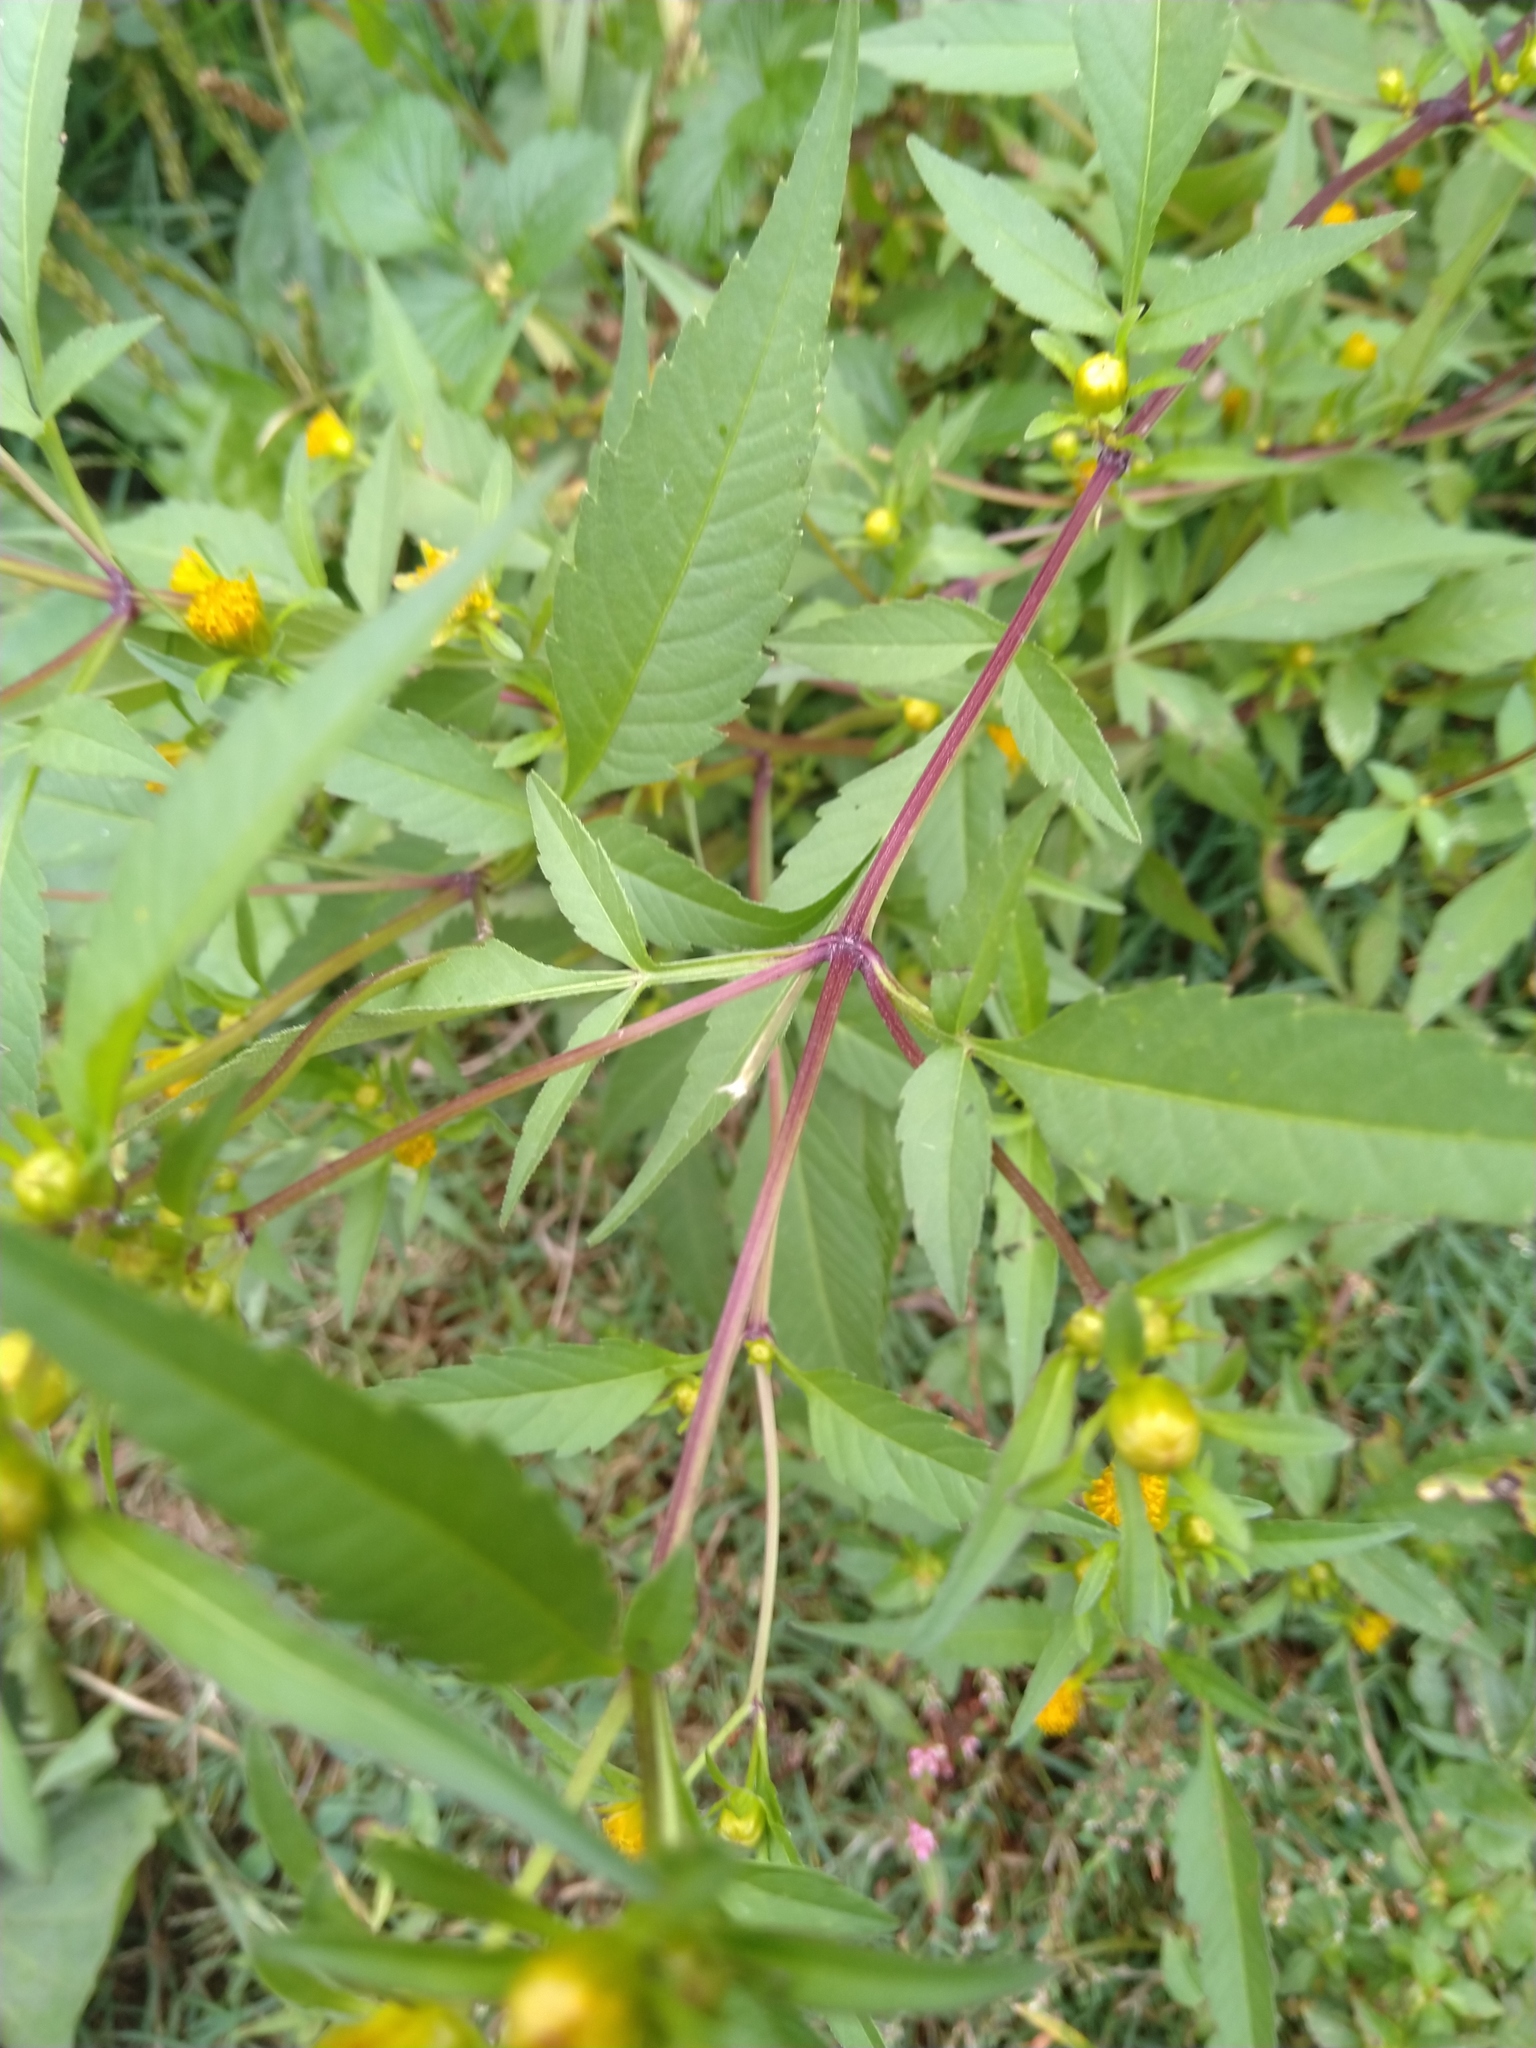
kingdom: Plantae
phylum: Tracheophyta
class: Magnoliopsida
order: Asterales
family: Asteraceae
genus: Bidens
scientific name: Bidens frondosa
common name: Beggarticks
